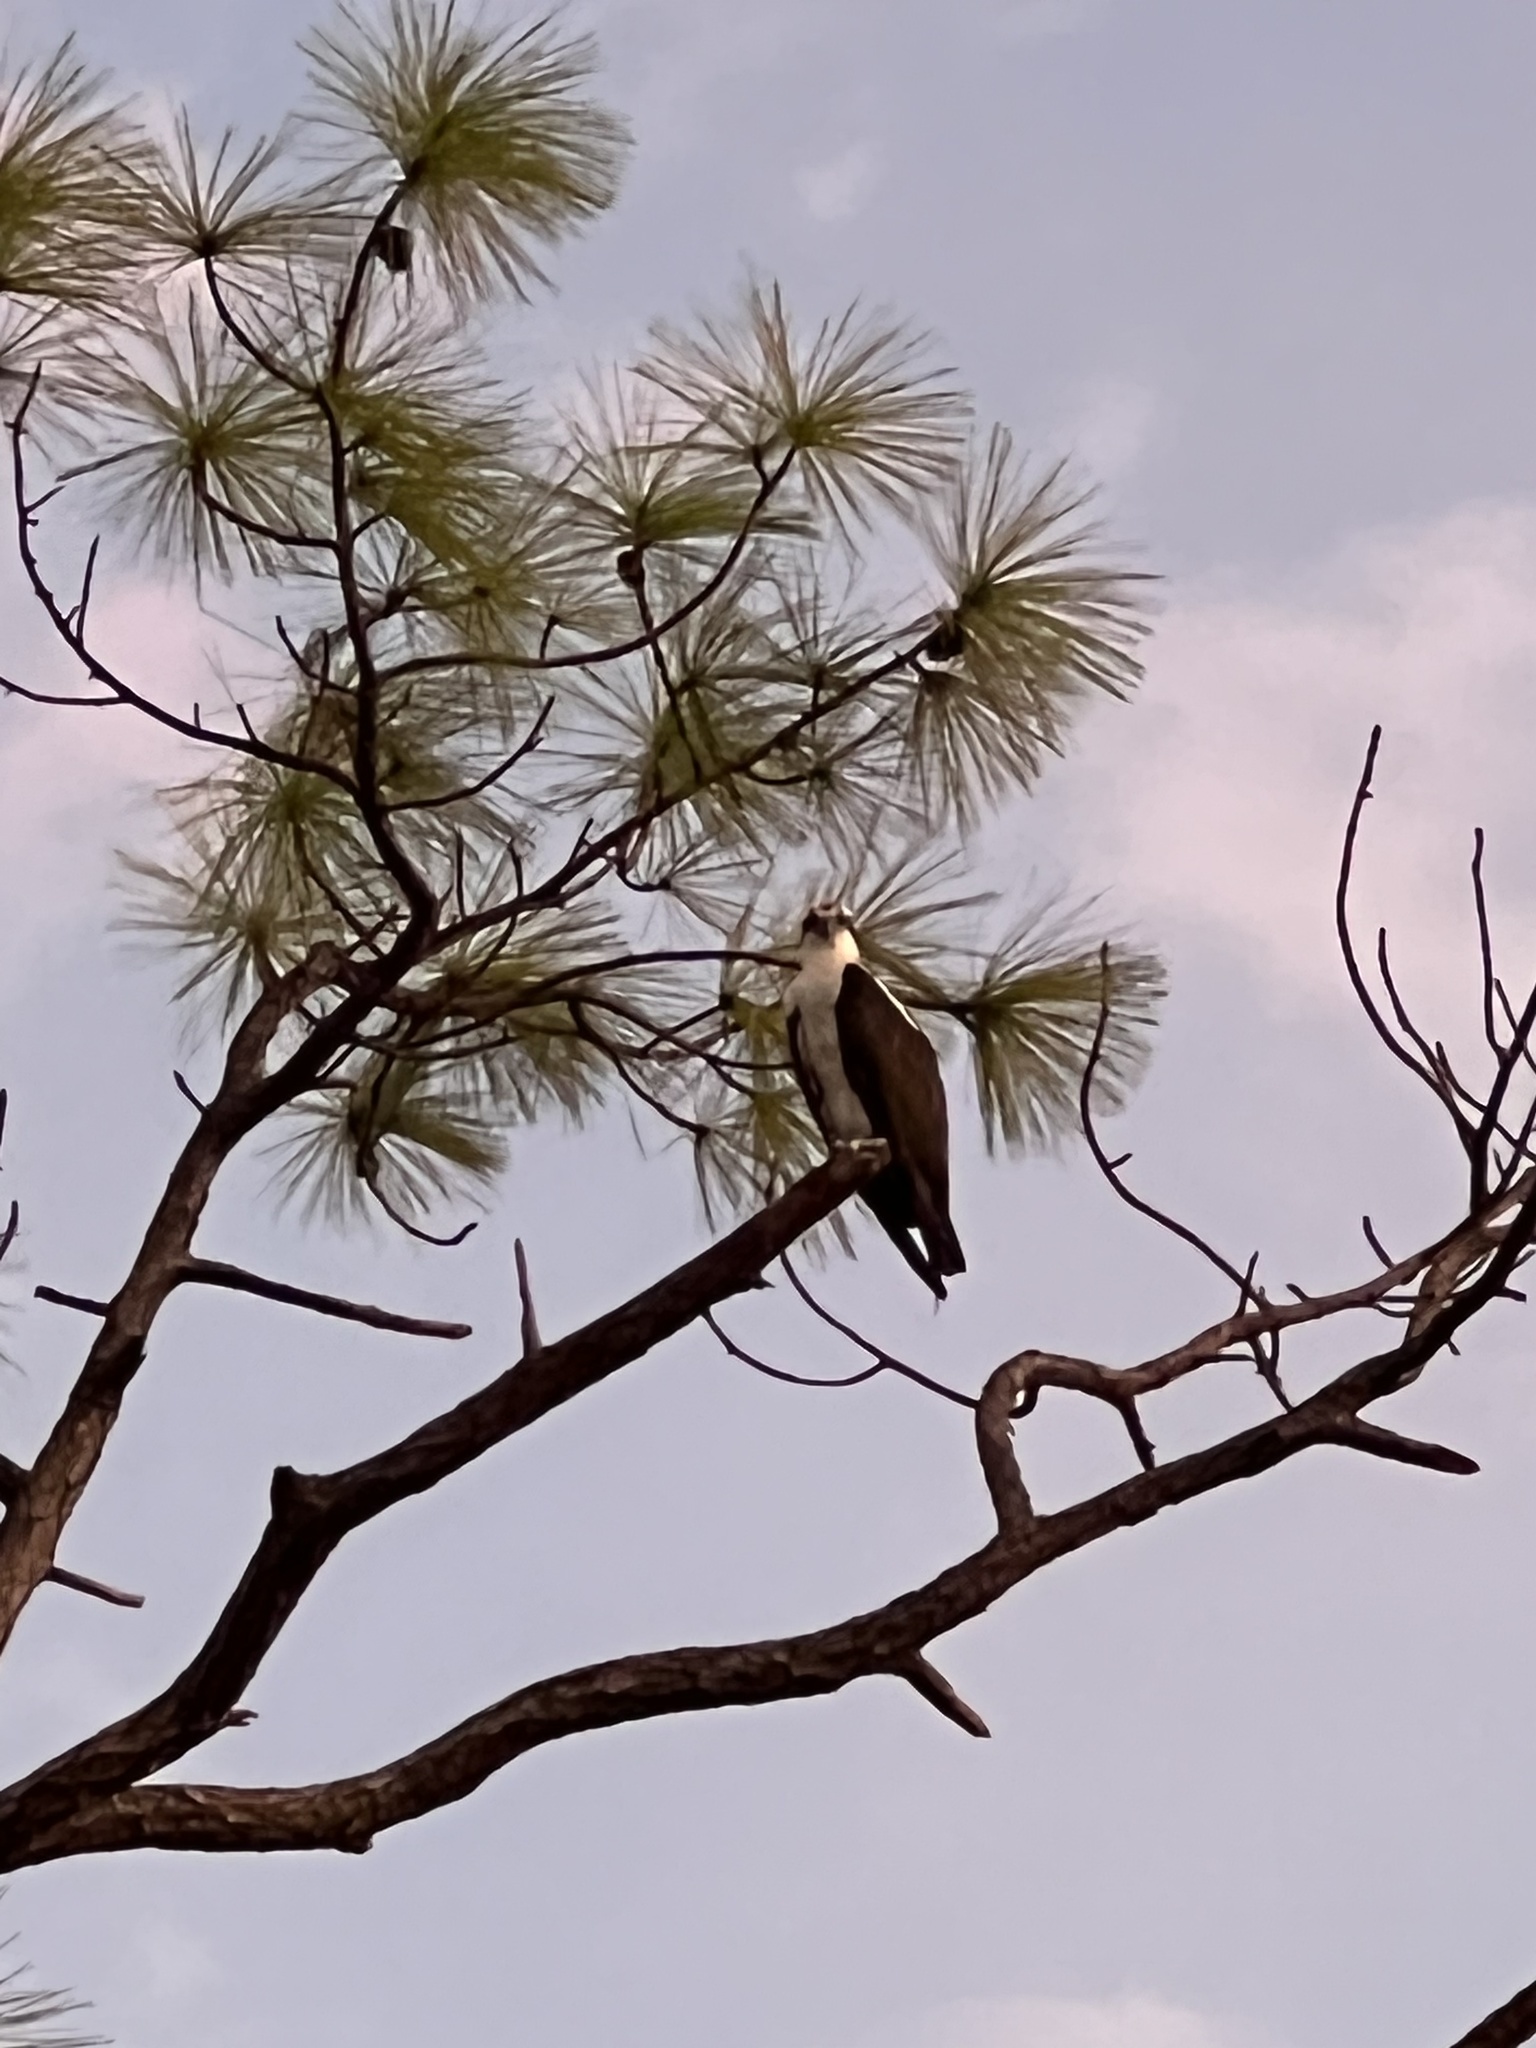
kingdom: Animalia
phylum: Chordata
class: Aves
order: Accipitriformes
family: Pandionidae
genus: Pandion
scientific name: Pandion haliaetus
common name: Osprey
